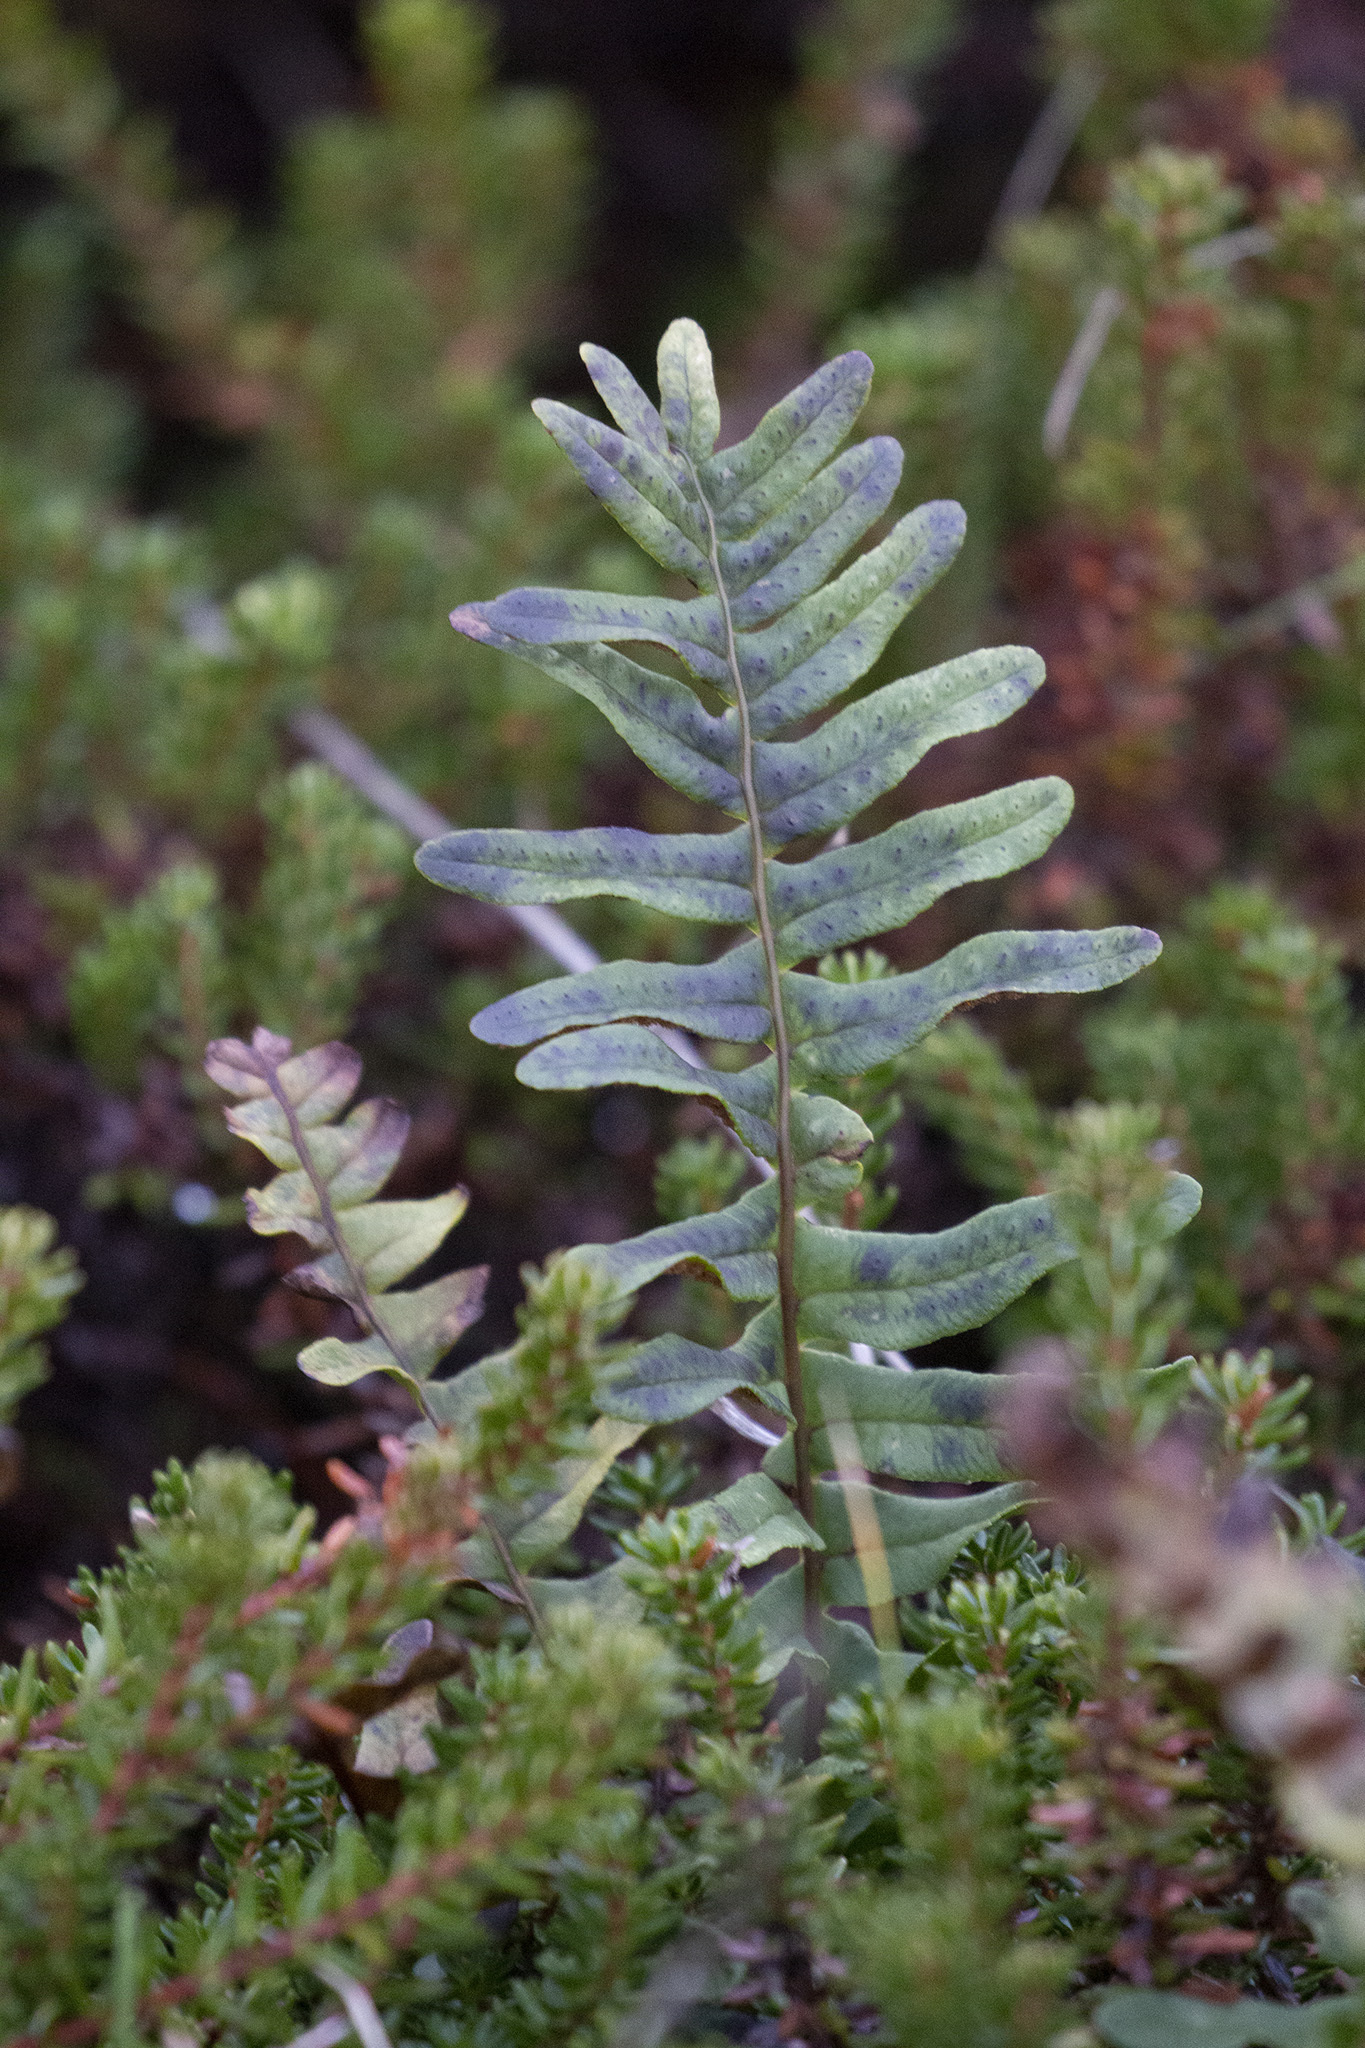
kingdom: Plantae
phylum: Tracheophyta
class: Polypodiopsida
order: Polypodiales
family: Polypodiaceae
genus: Polypodium
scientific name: Polypodium vulgare
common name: Common polypody
